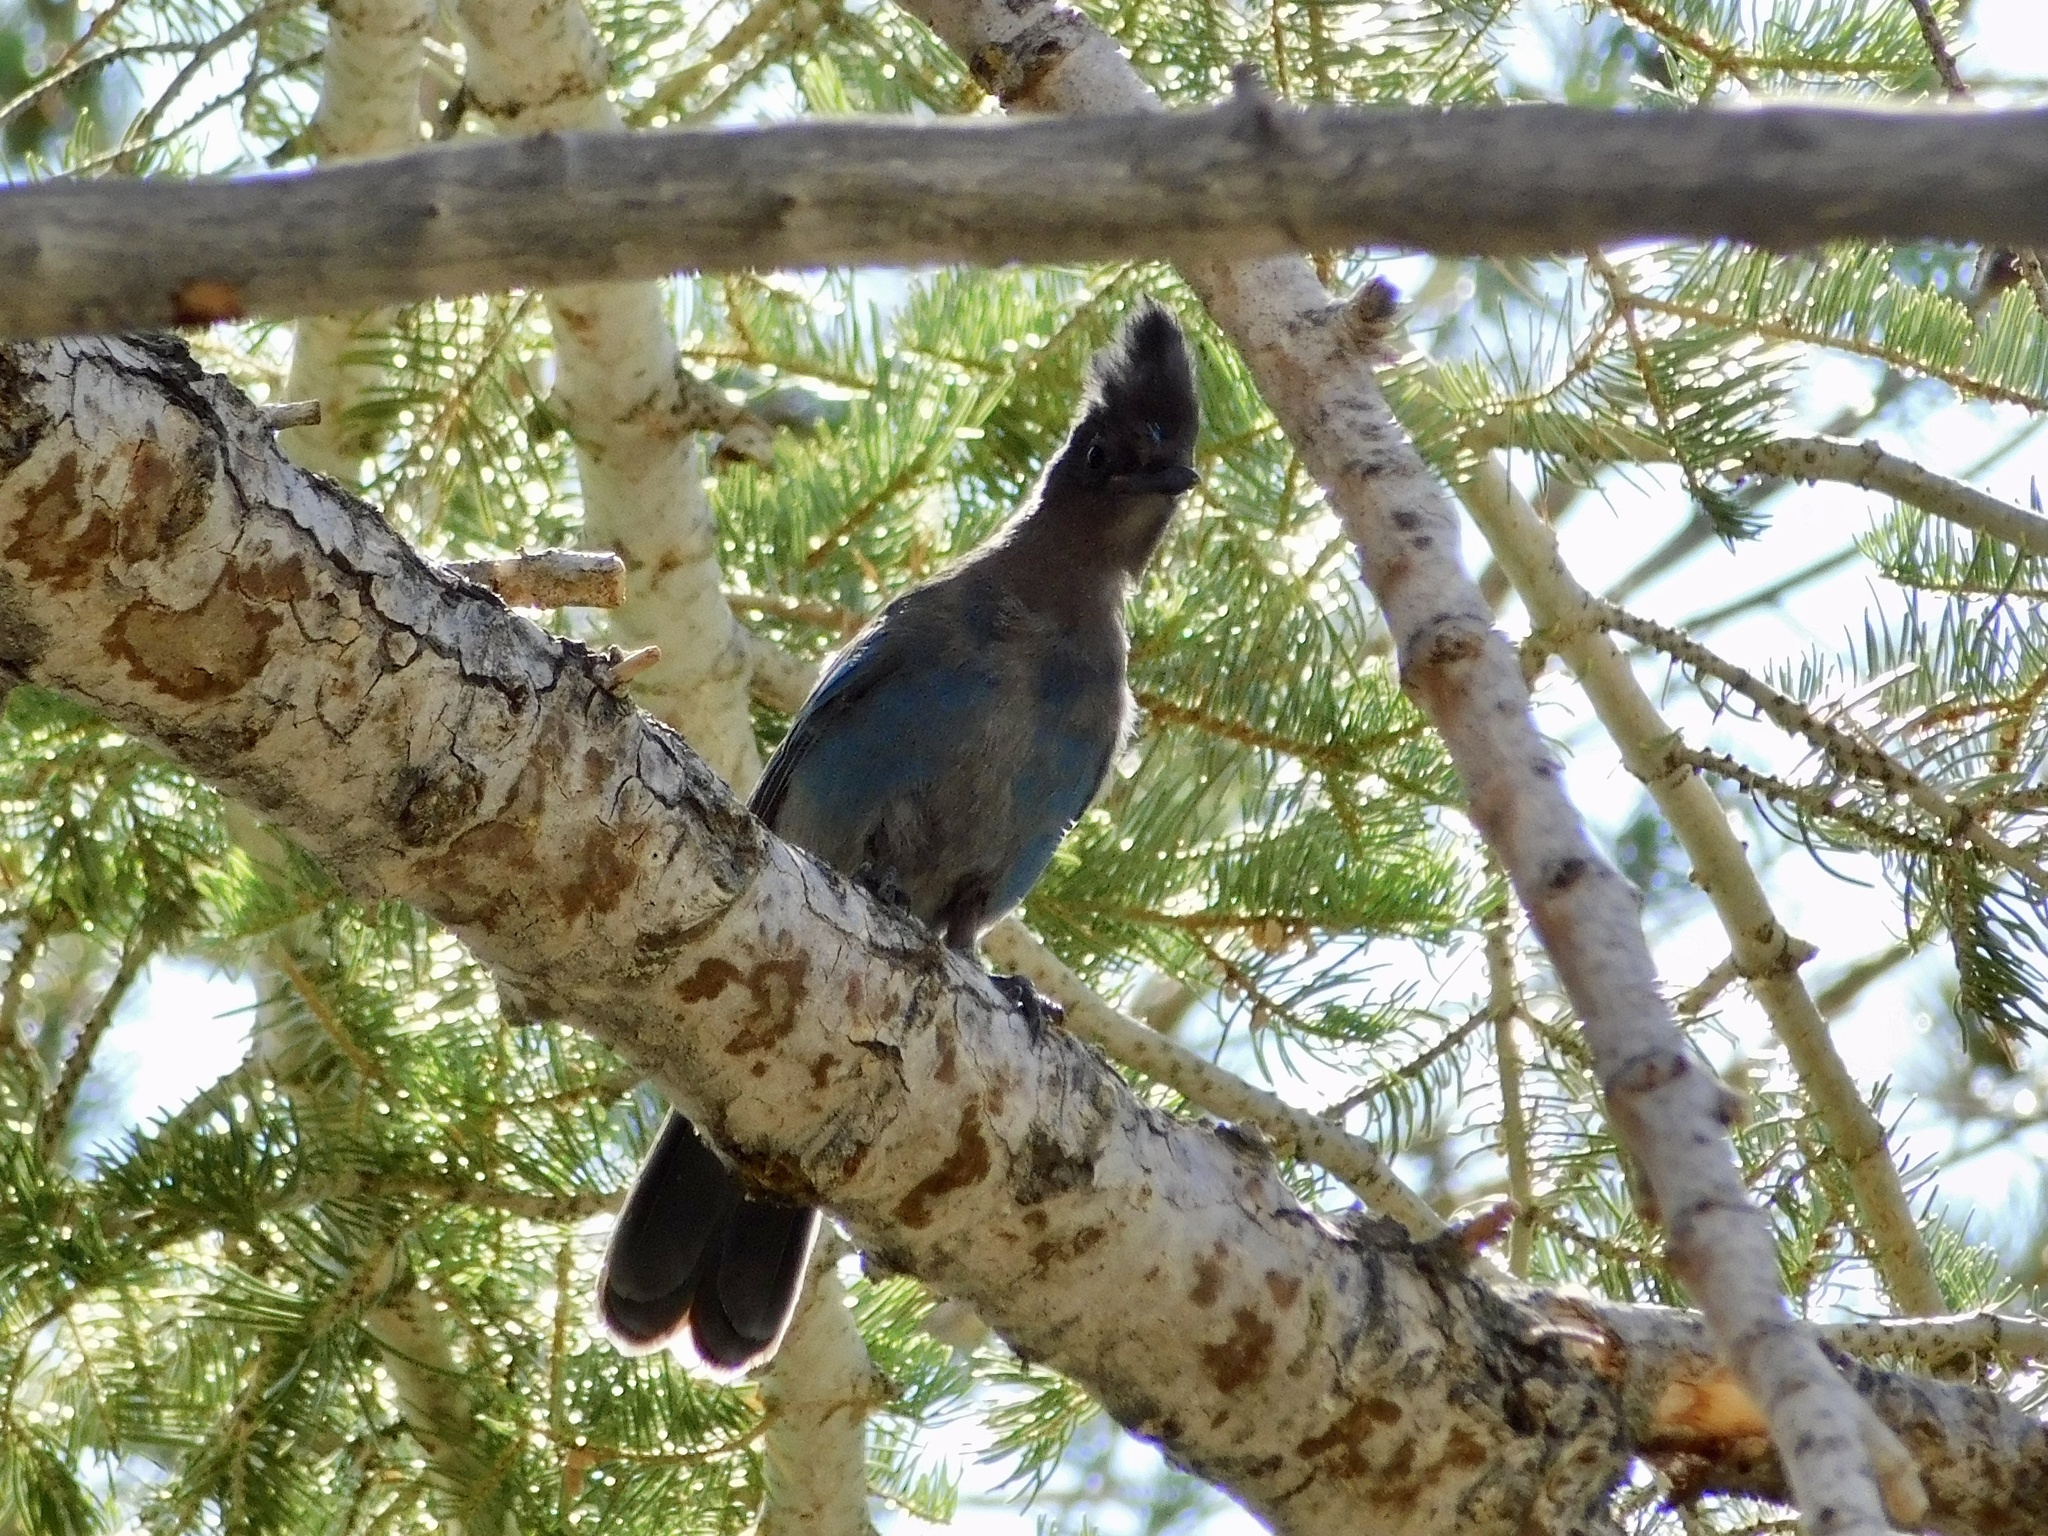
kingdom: Animalia
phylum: Chordata
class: Aves
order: Passeriformes
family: Corvidae
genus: Cyanocitta
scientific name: Cyanocitta stelleri
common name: Steller's jay
